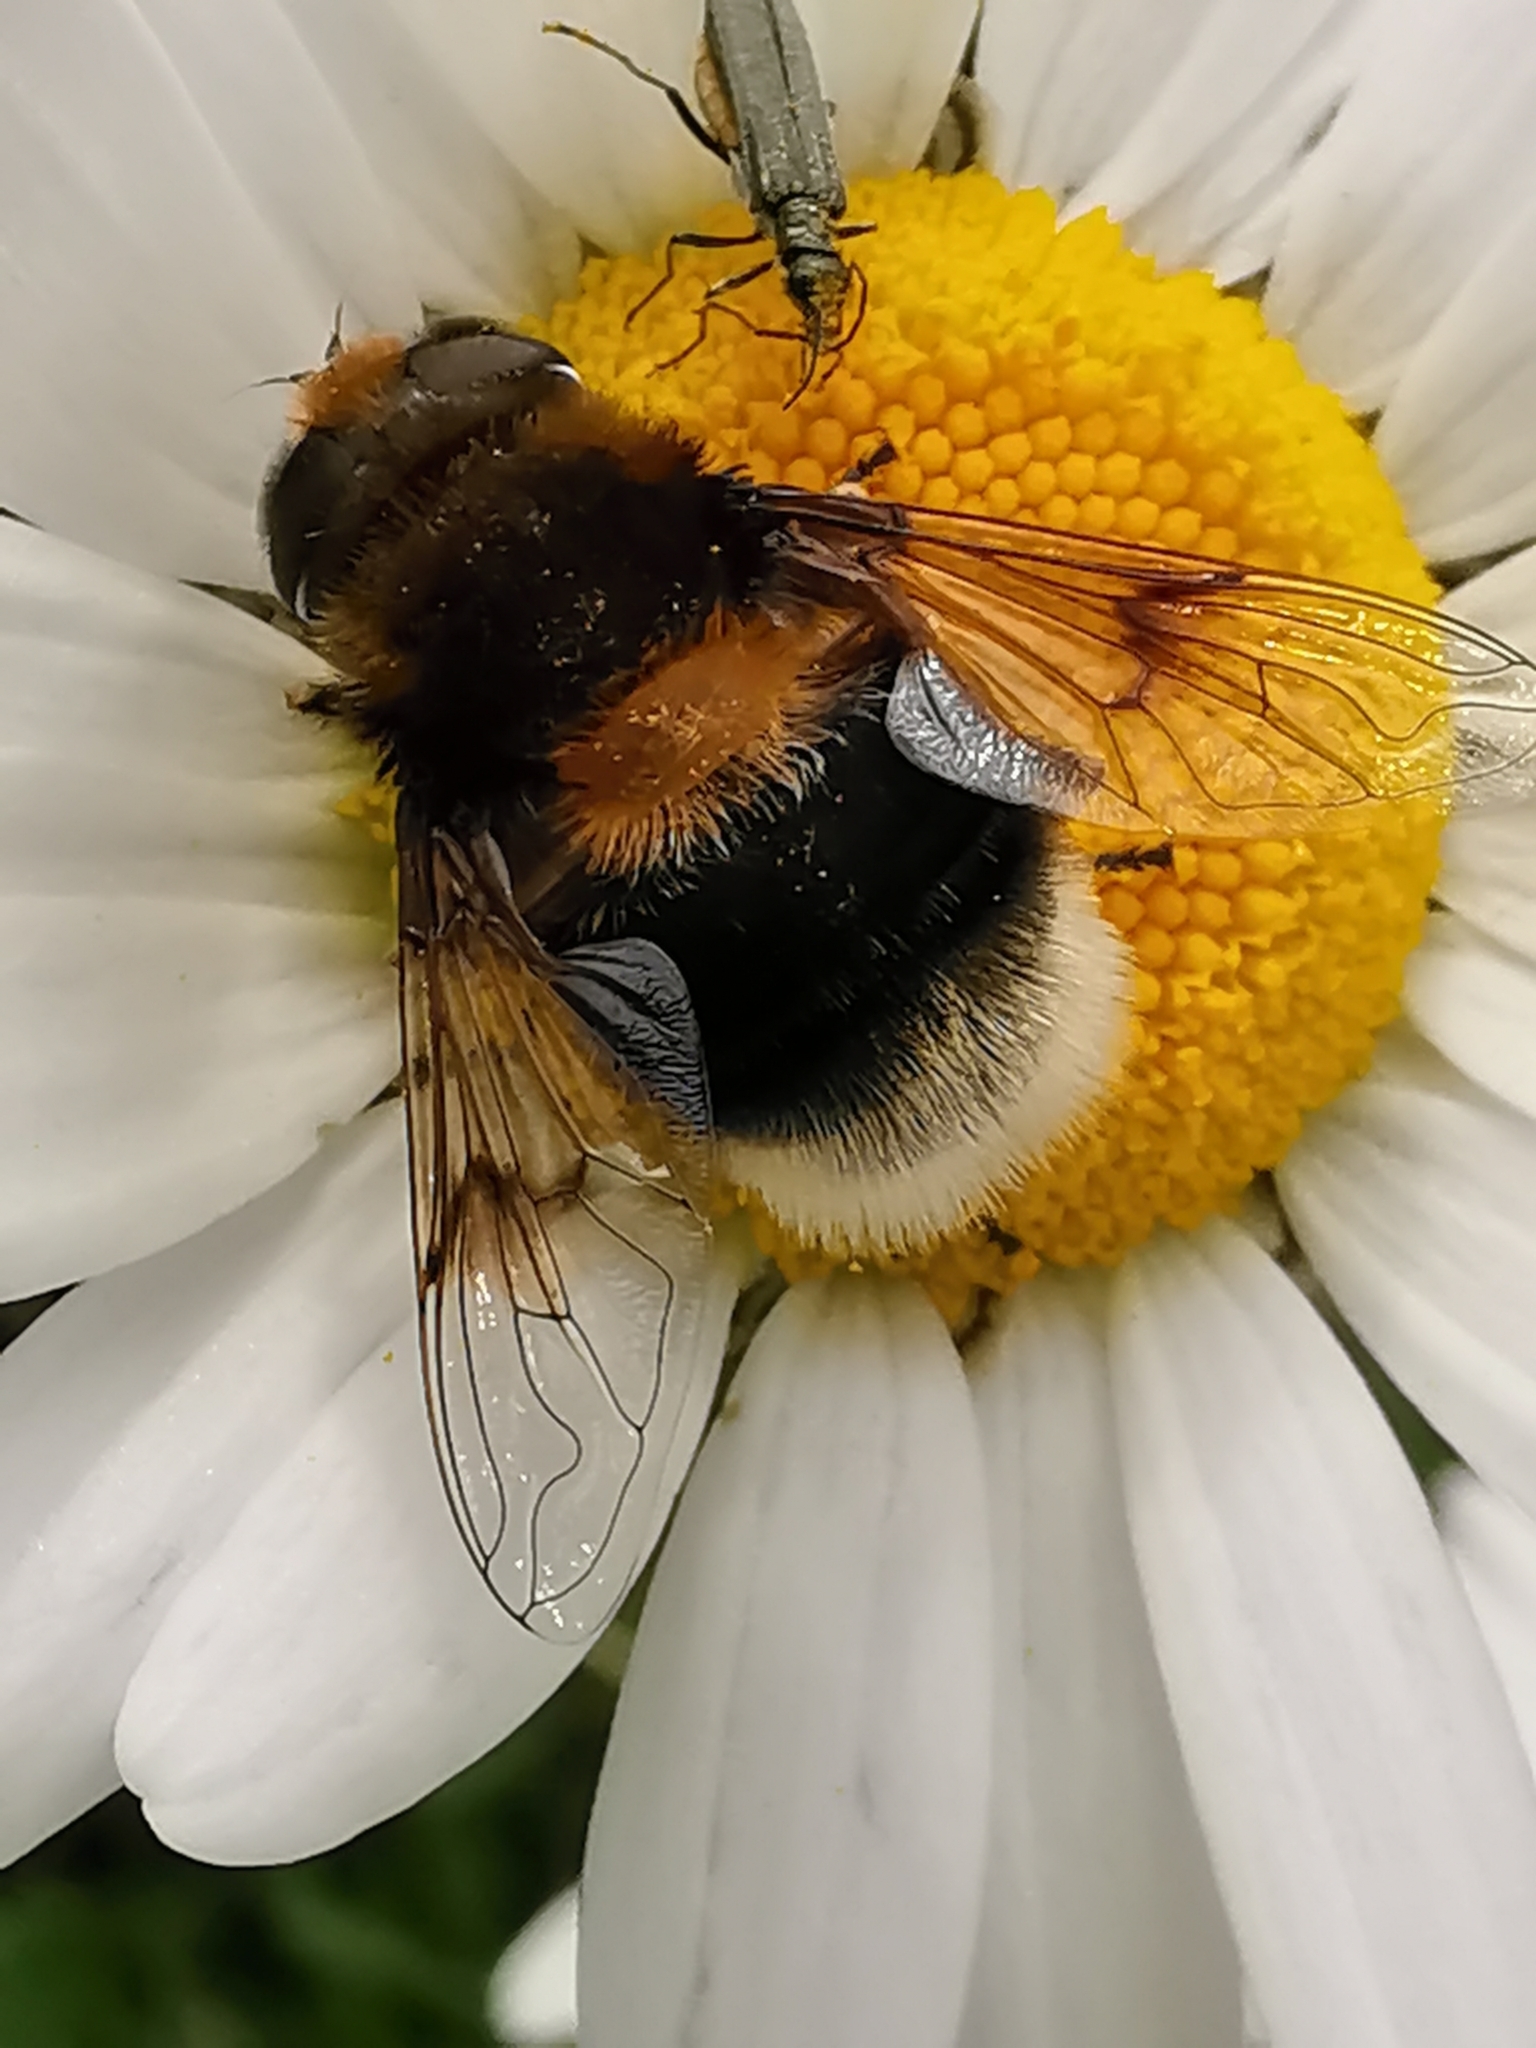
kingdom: Animalia
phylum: Arthropoda
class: Insecta
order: Diptera
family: Syrphidae
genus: Eristalis
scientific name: Eristalis intricaria
